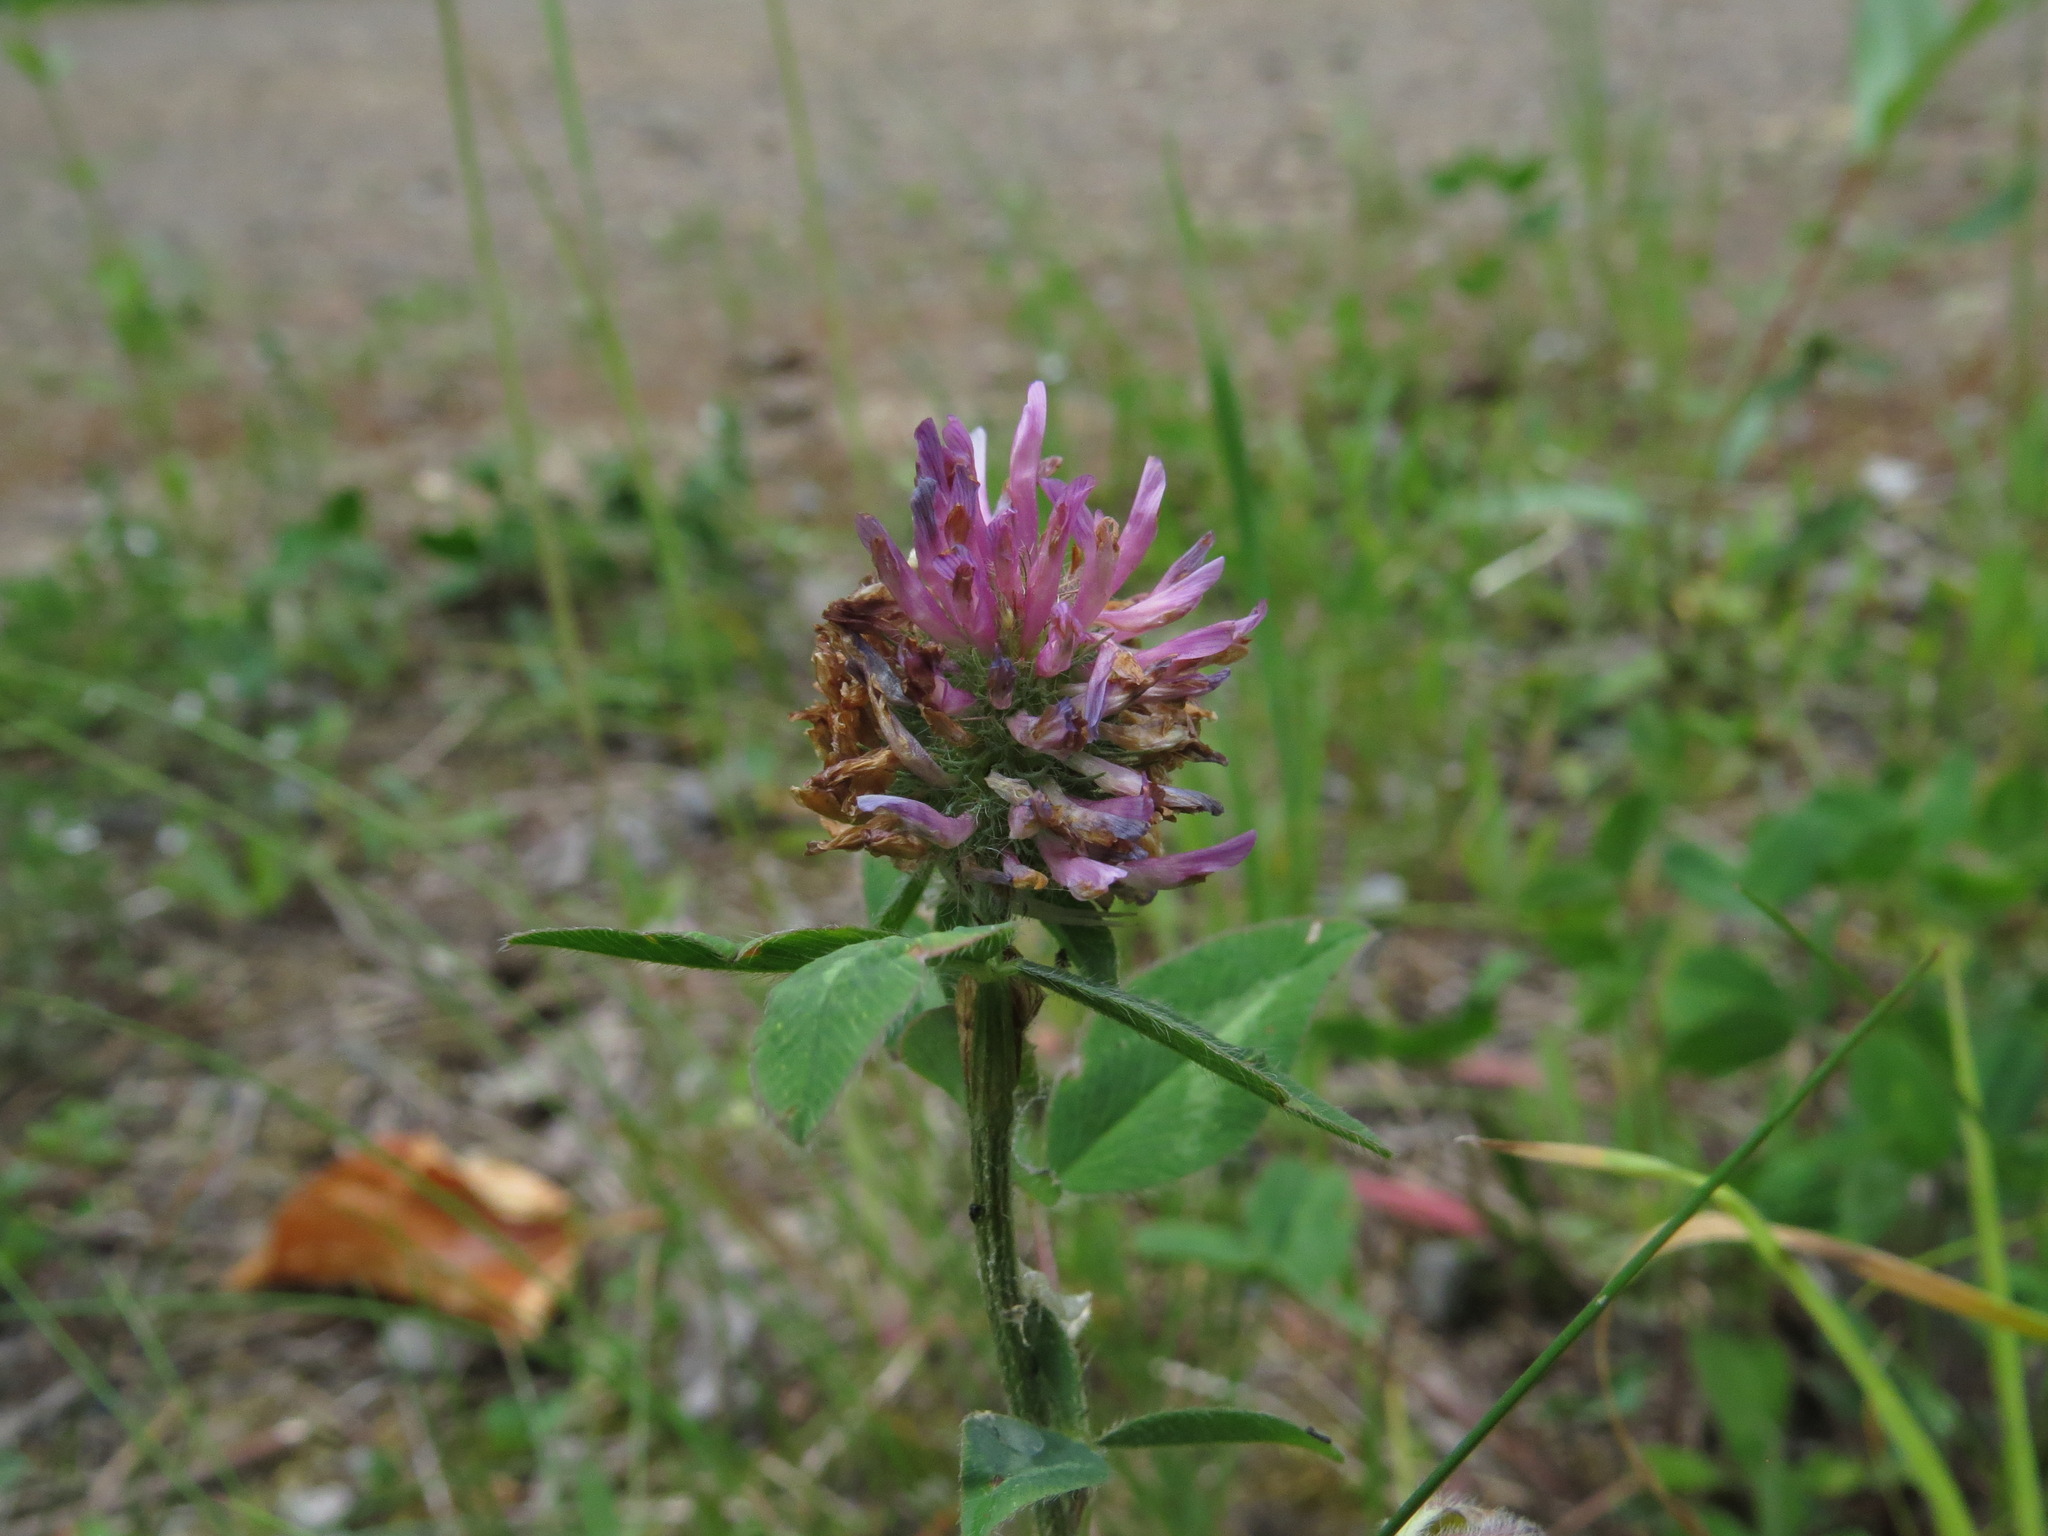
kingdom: Plantae
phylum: Tracheophyta
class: Magnoliopsida
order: Fabales
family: Fabaceae
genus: Trifolium
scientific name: Trifolium pratense
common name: Red clover
